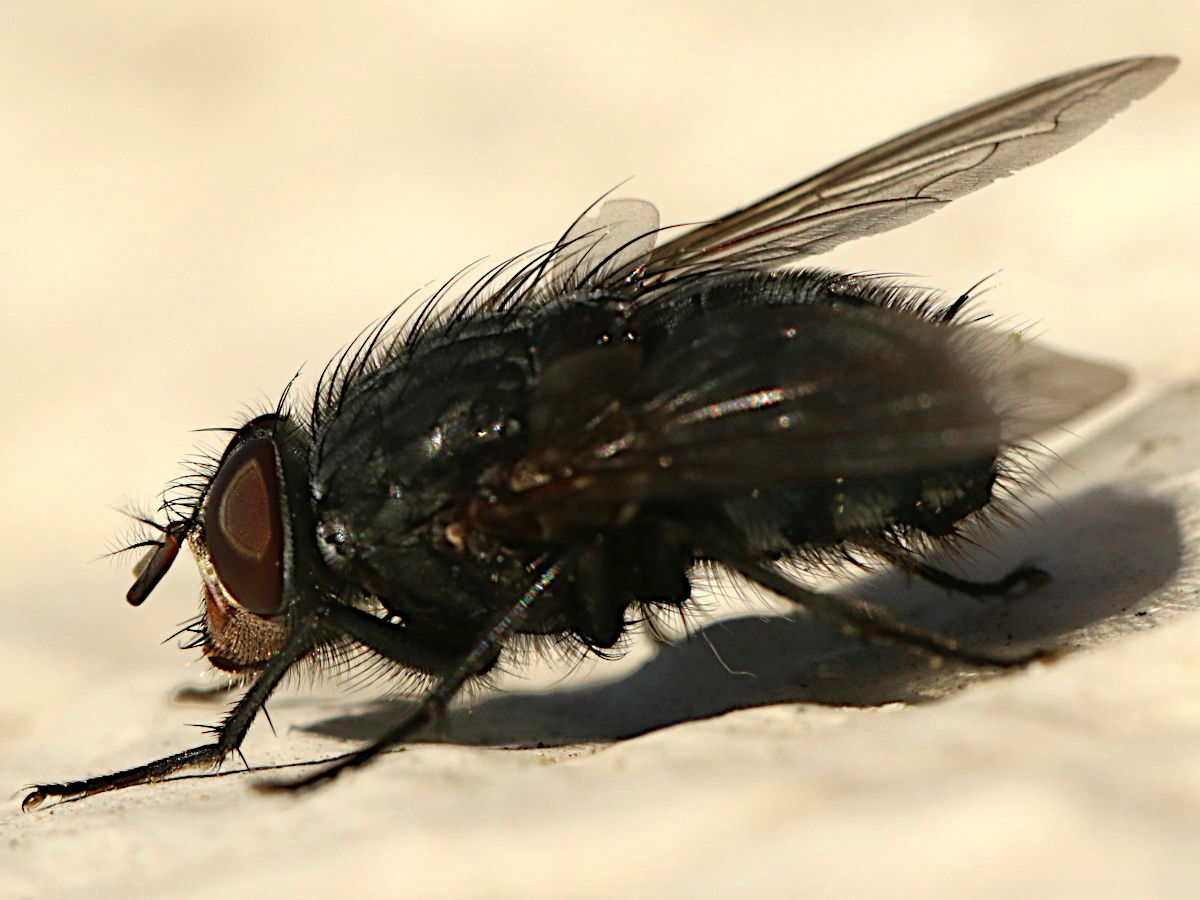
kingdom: Animalia
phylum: Arthropoda
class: Insecta
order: Diptera
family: Calliphoridae
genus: Calliphora
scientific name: Calliphora vicina
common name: Common blow flie
